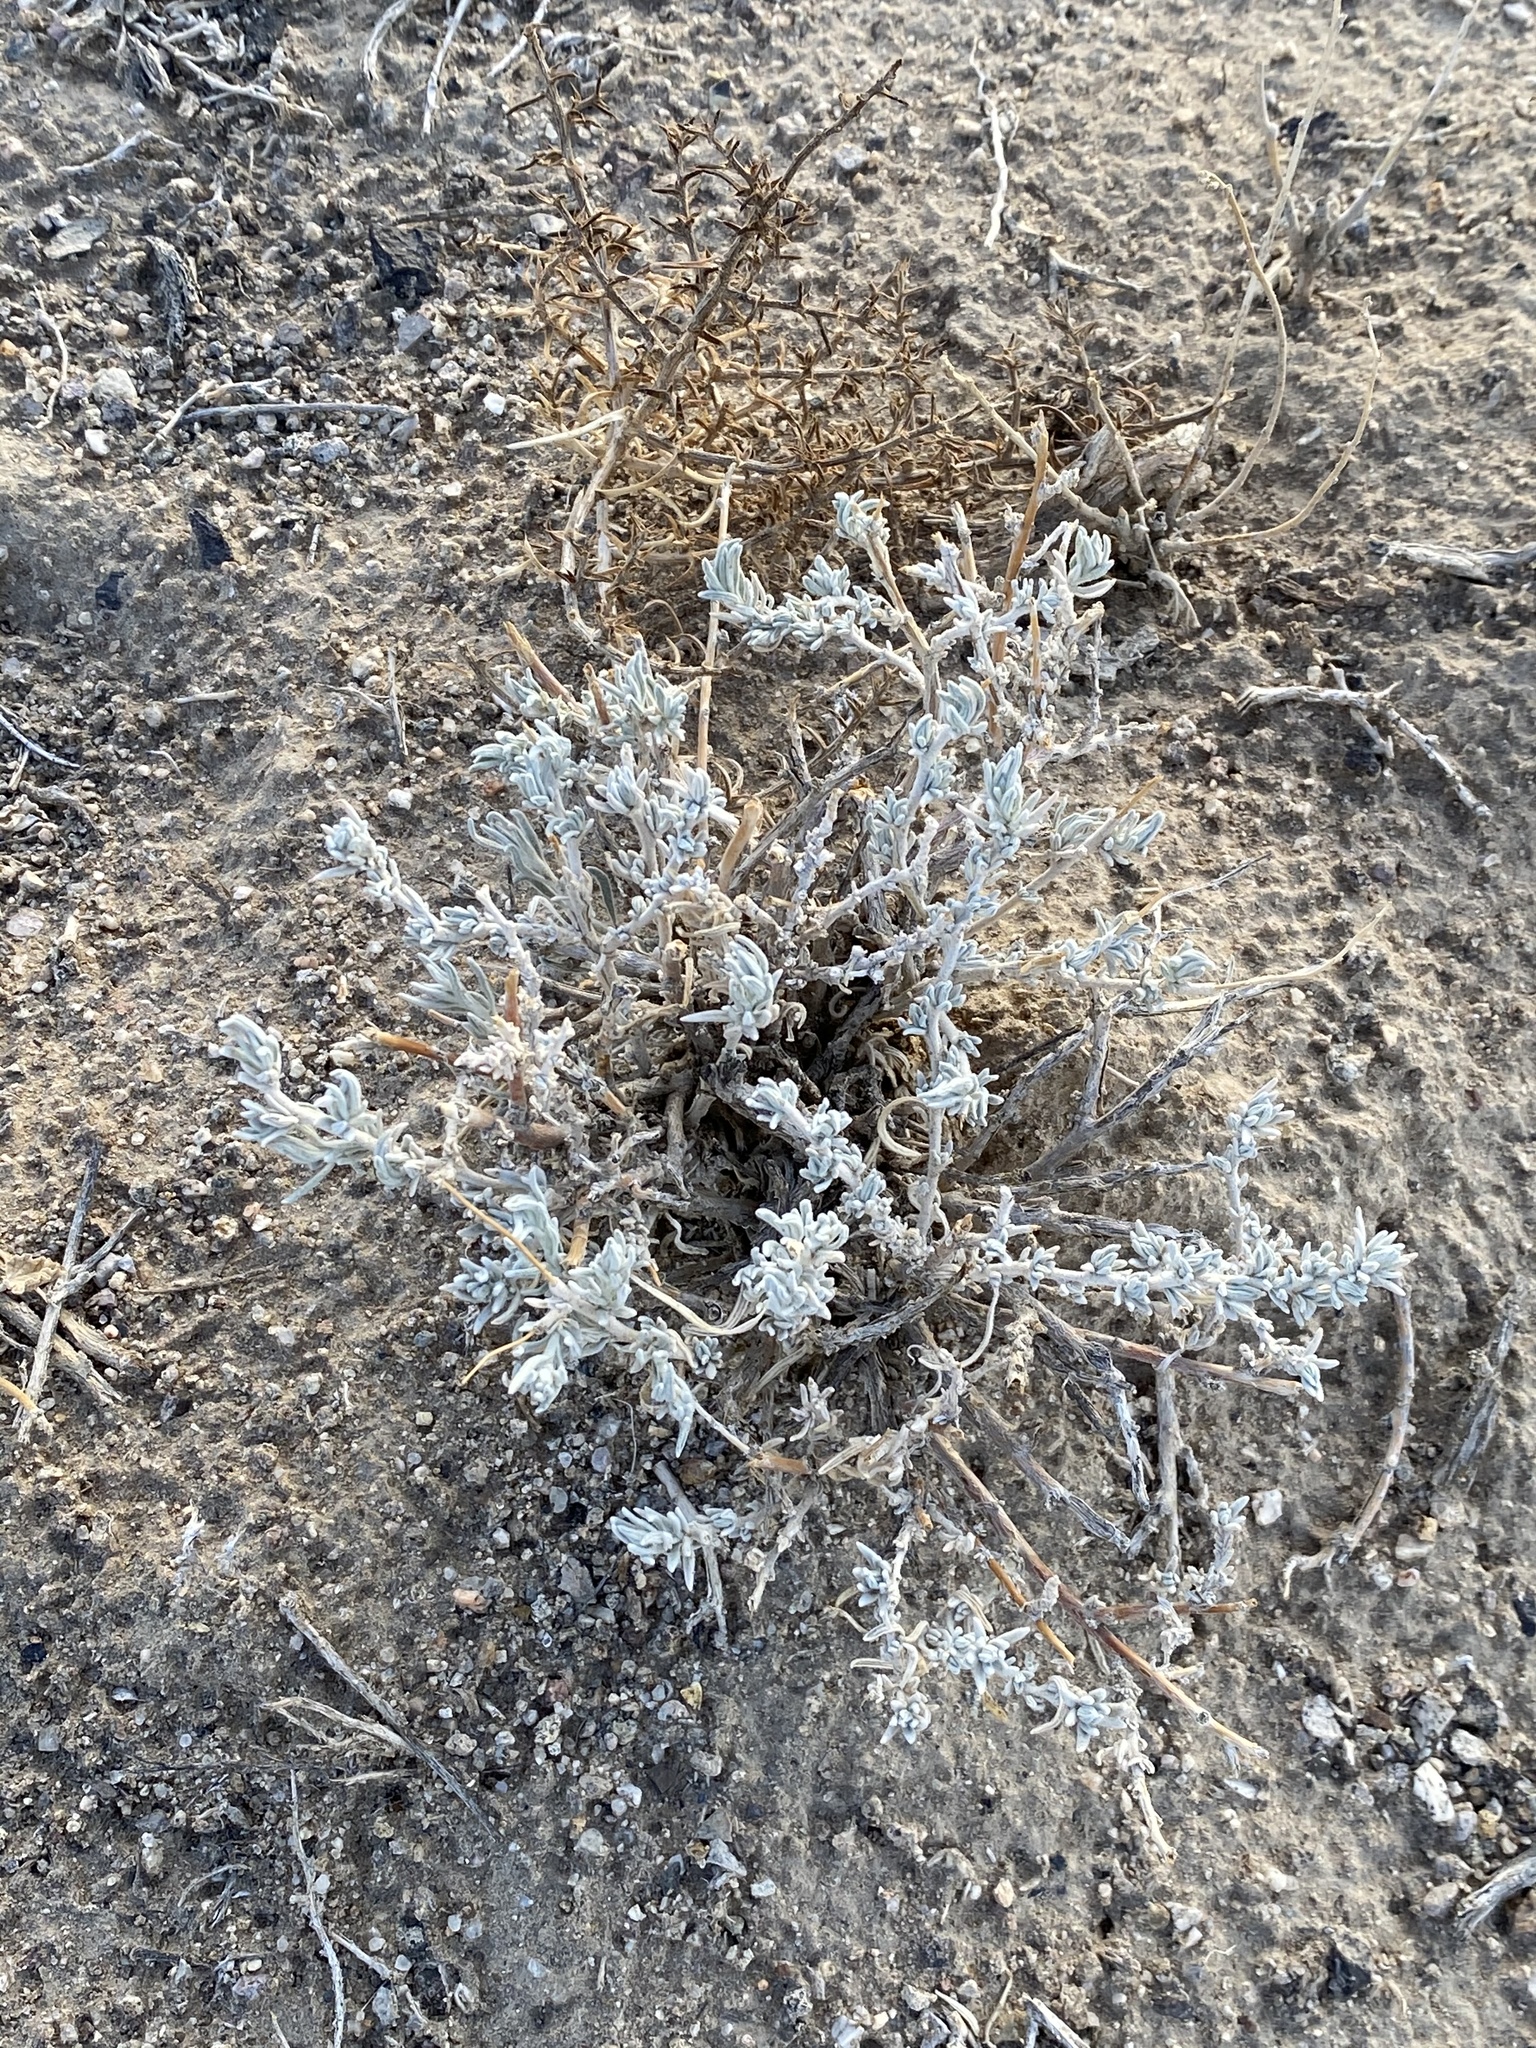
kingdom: Plantae
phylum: Tracheophyta
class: Magnoliopsida
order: Caryophyllales
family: Amaranthaceae
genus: Krascheninnikovia
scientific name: Krascheninnikovia lanata
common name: Winterfat
